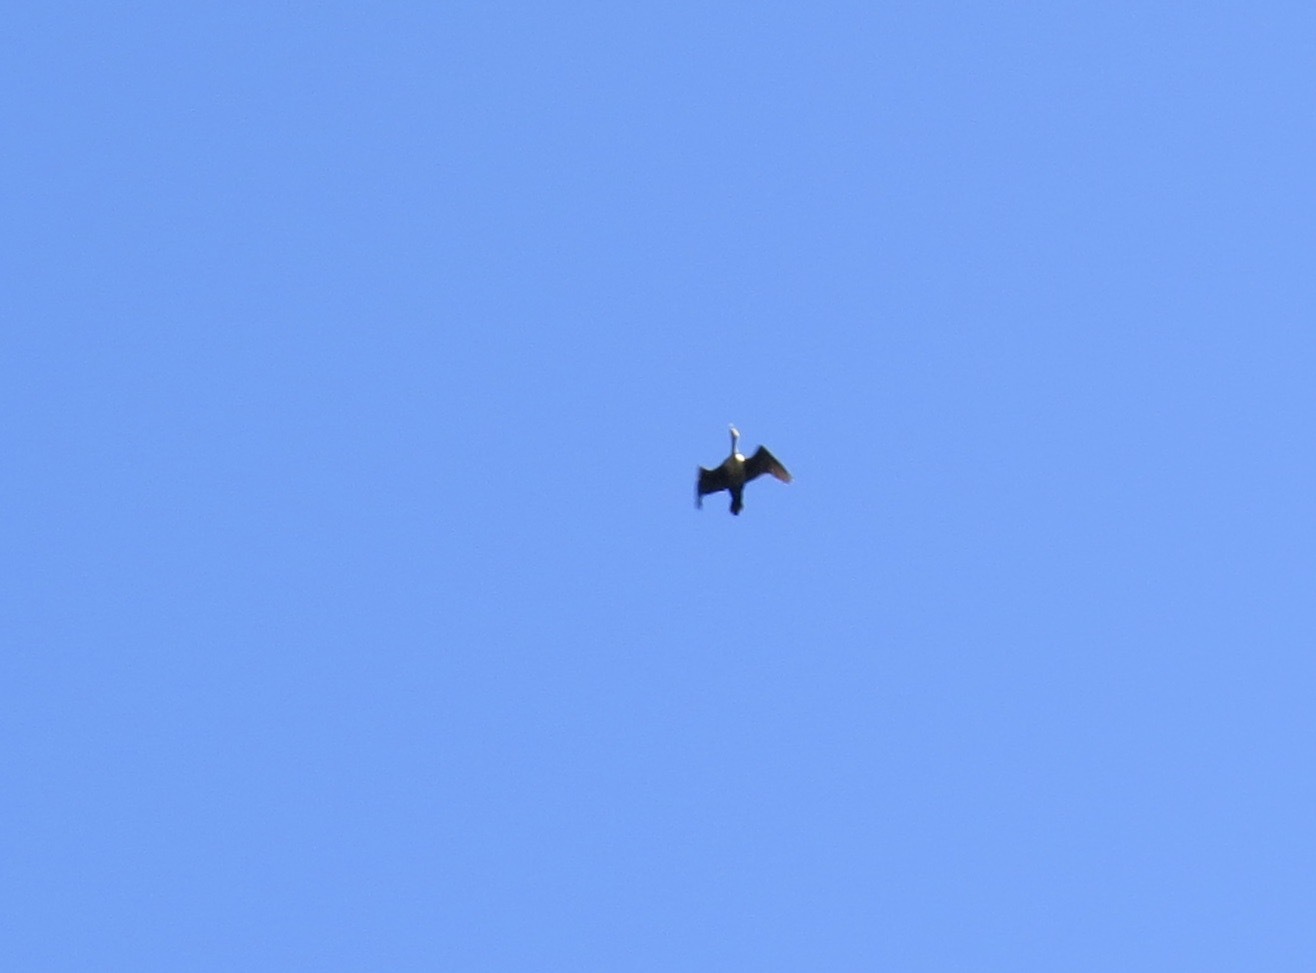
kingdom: Animalia
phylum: Chordata
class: Aves
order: Suliformes
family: Phalacrocoracidae
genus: Phalacrocorax
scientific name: Phalacrocorax auritus
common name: Double-crested cormorant
